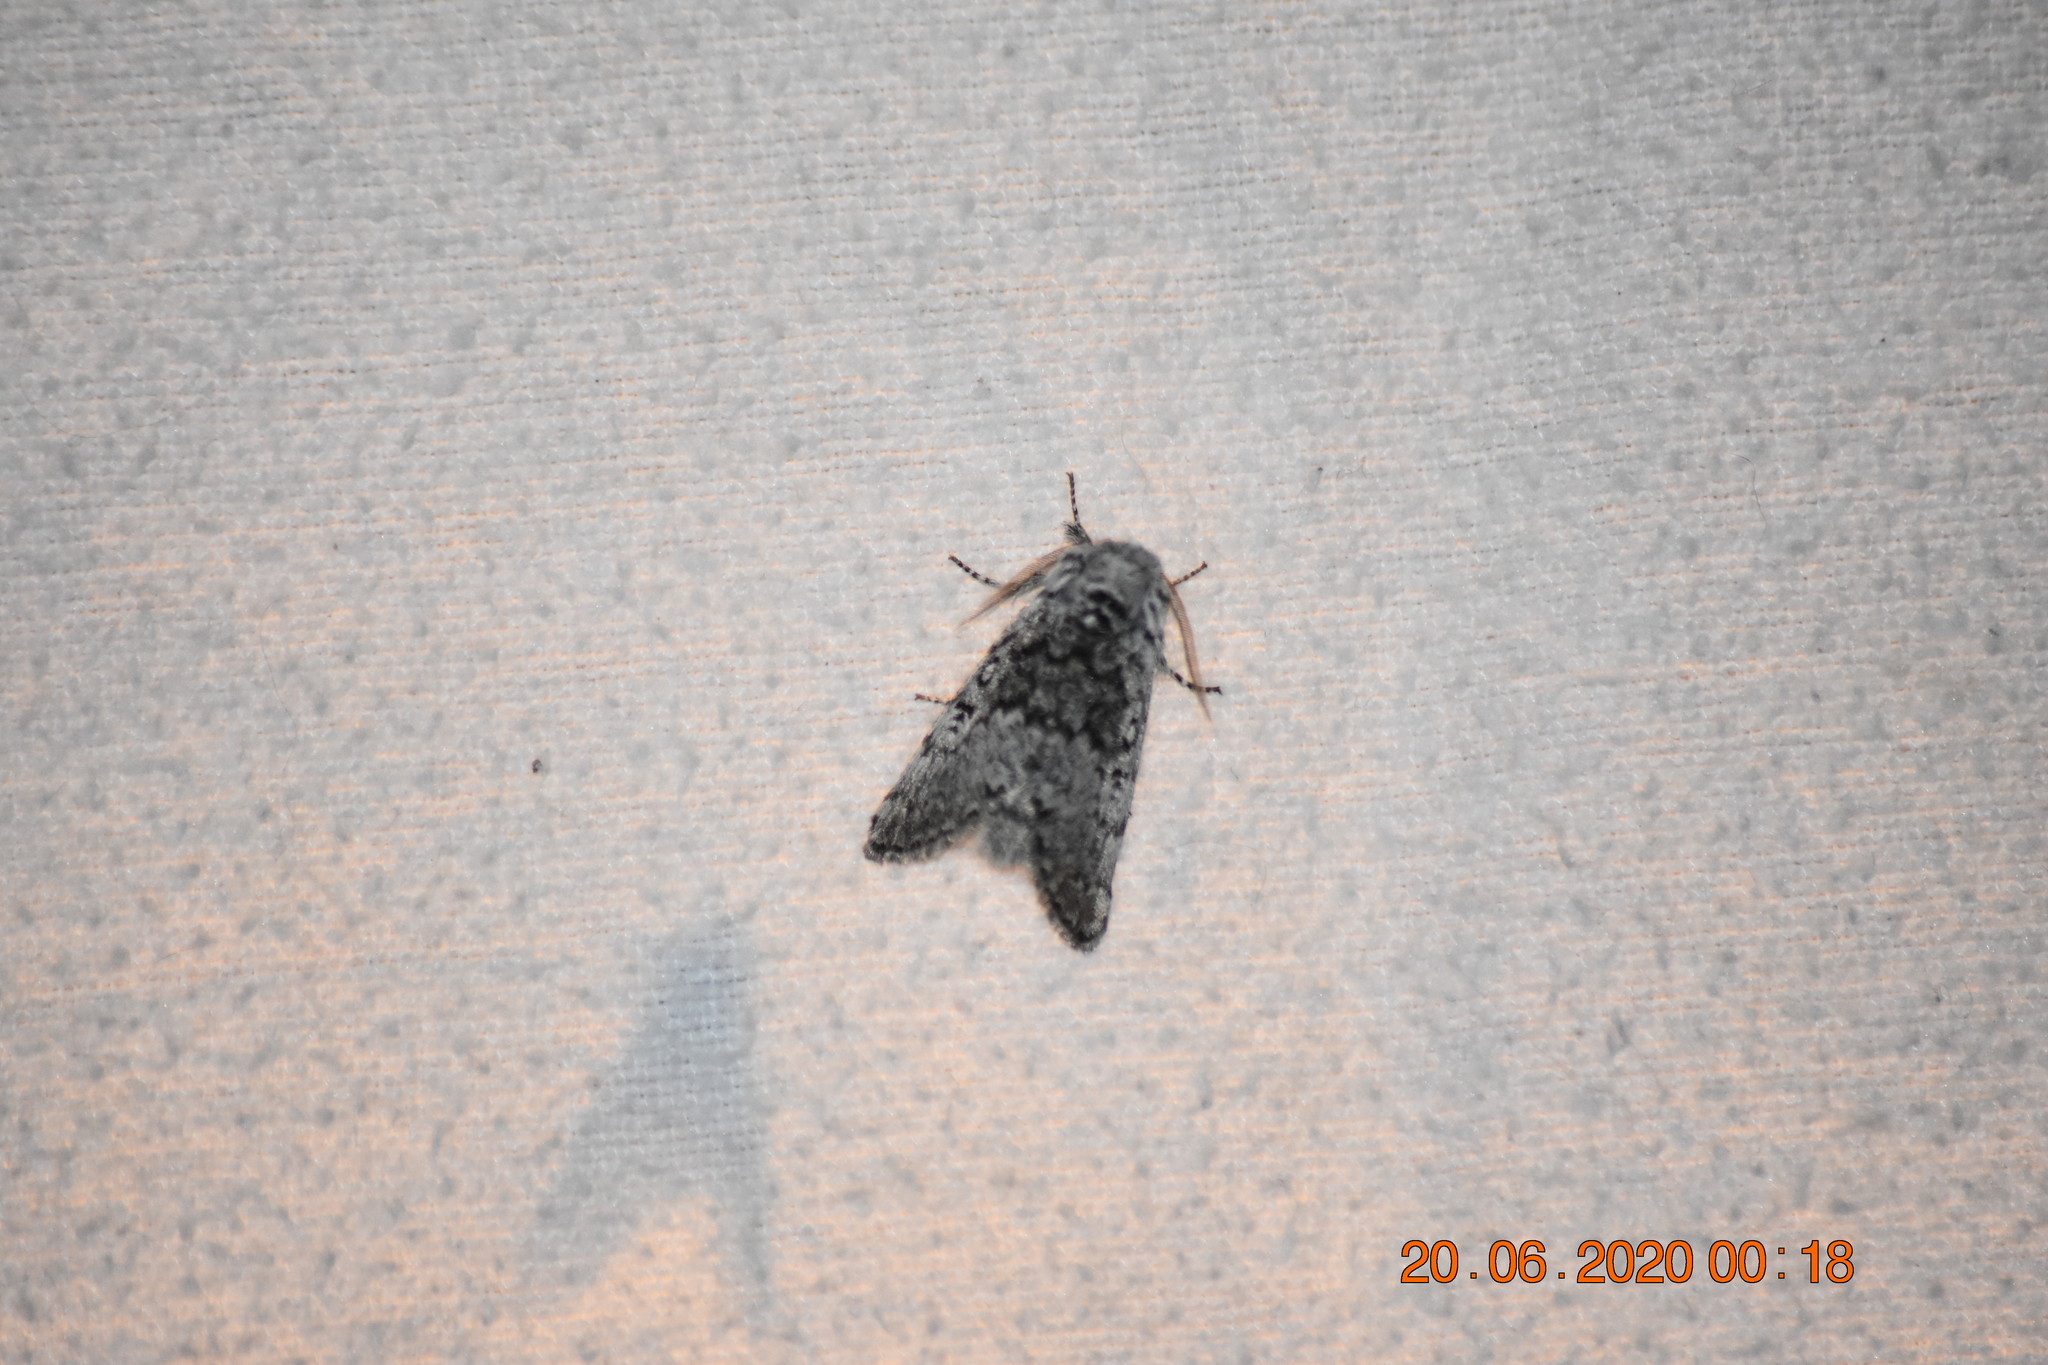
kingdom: Animalia
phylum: Arthropoda
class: Insecta
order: Lepidoptera
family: Noctuidae
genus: Colocasia
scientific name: Colocasia propinquilinea
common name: Close-banded demas
